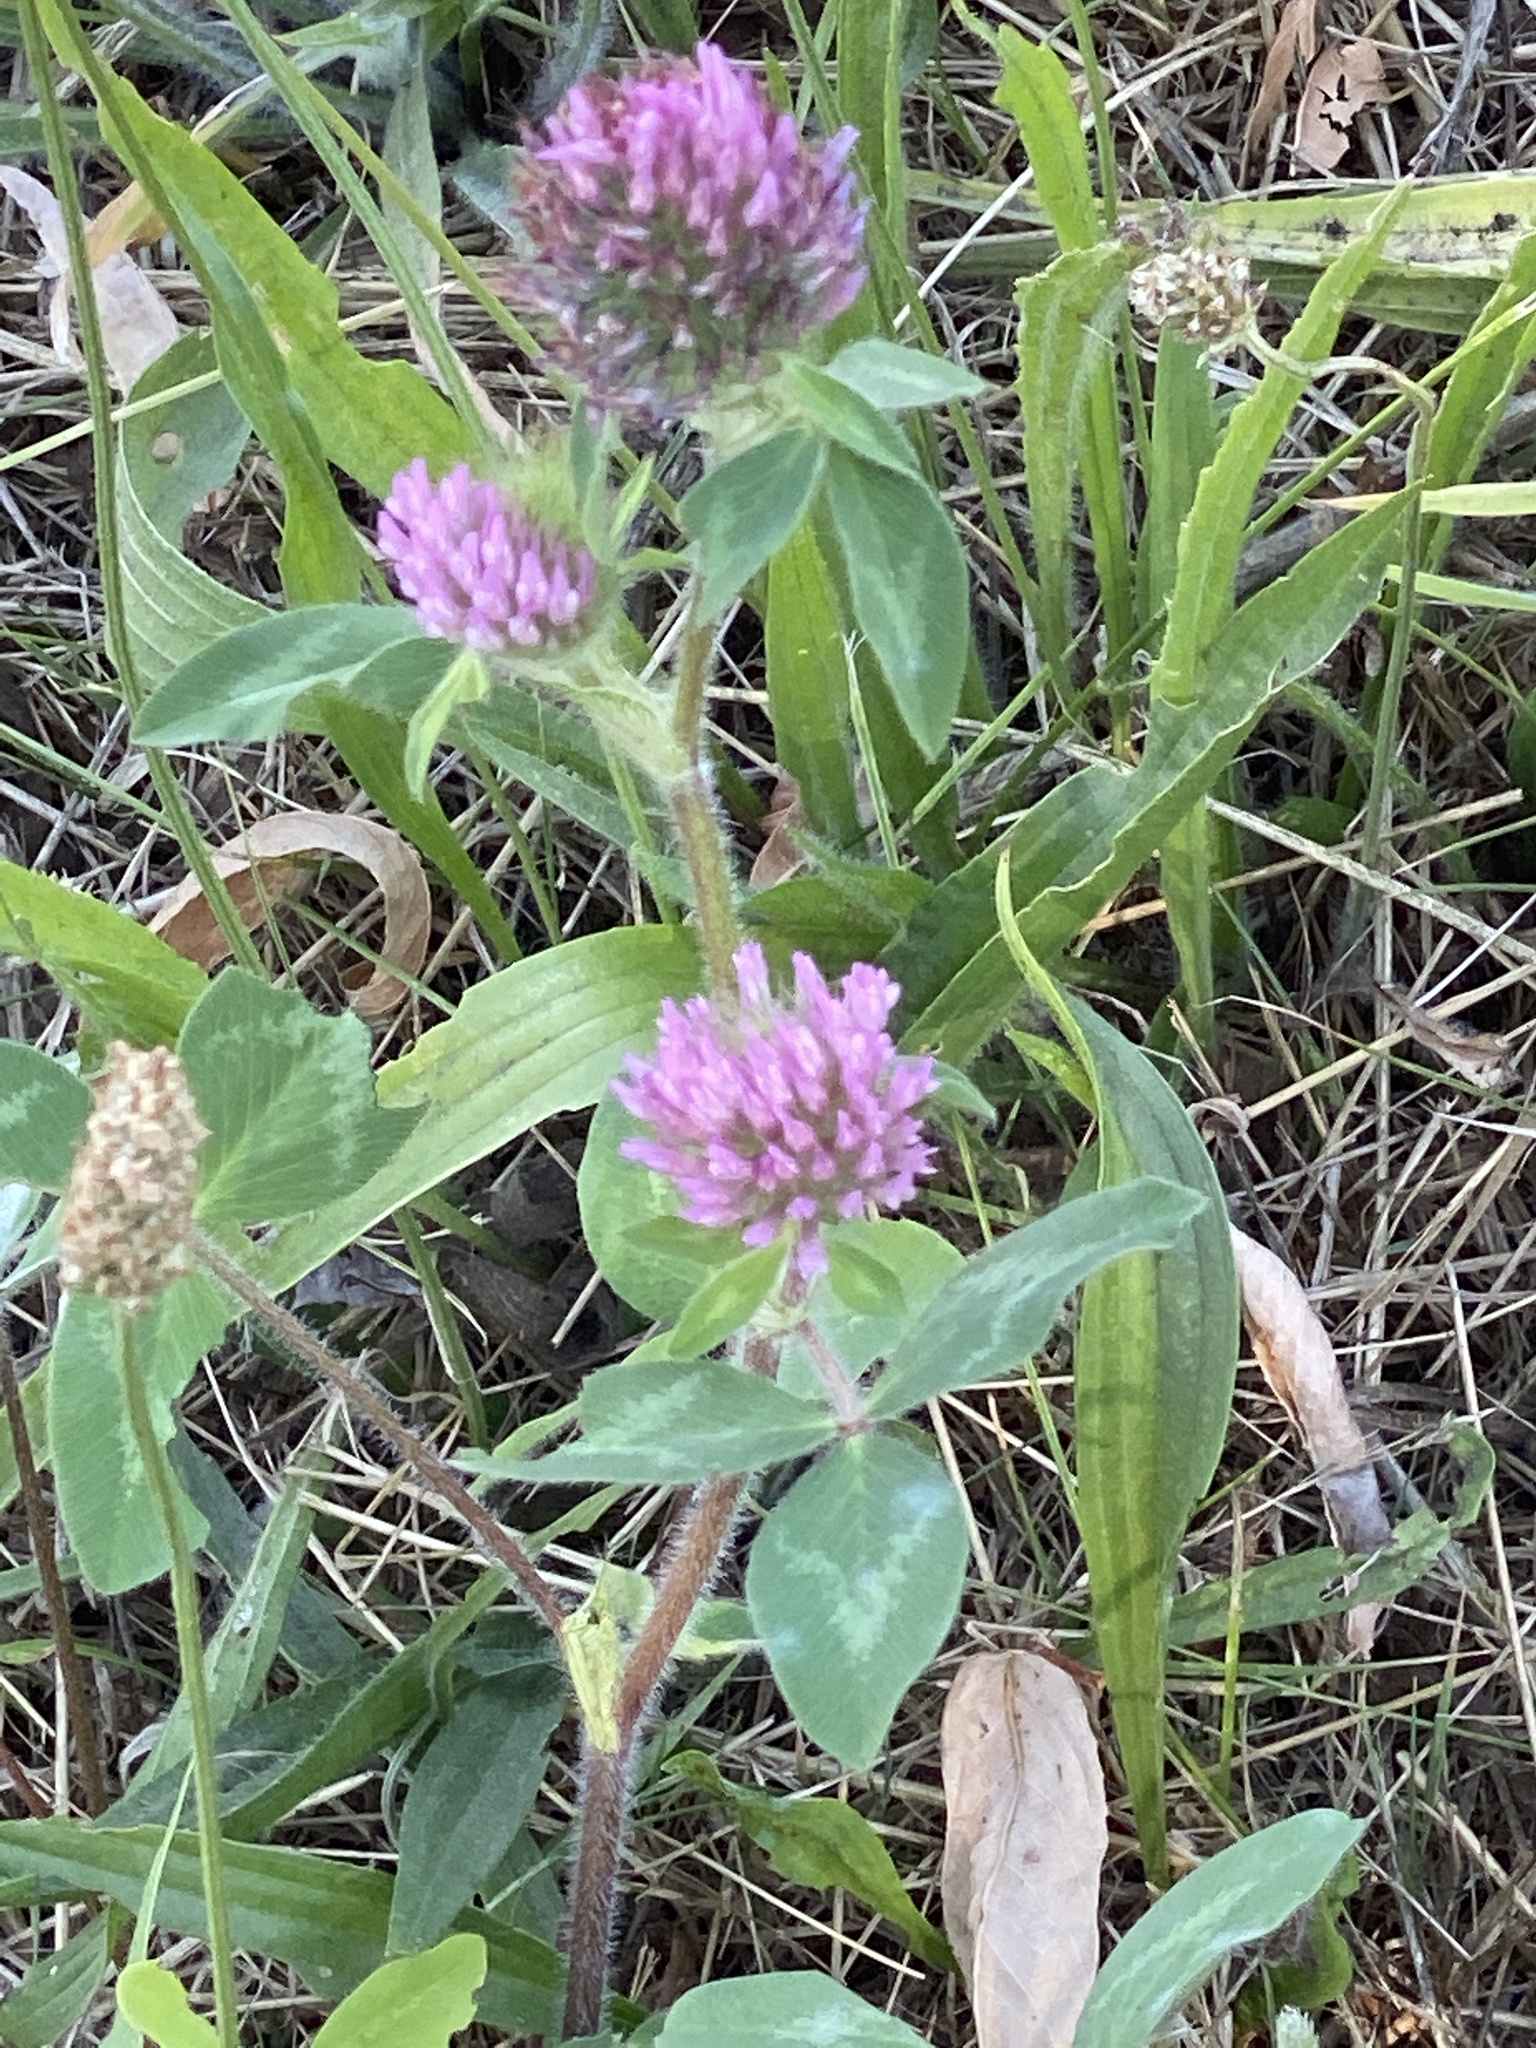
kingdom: Plantae
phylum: Tracheophyta
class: Magnoliopsida
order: Fabales
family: Fabaceae
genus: Trifolium
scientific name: Trifolium pratense
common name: Red clover
